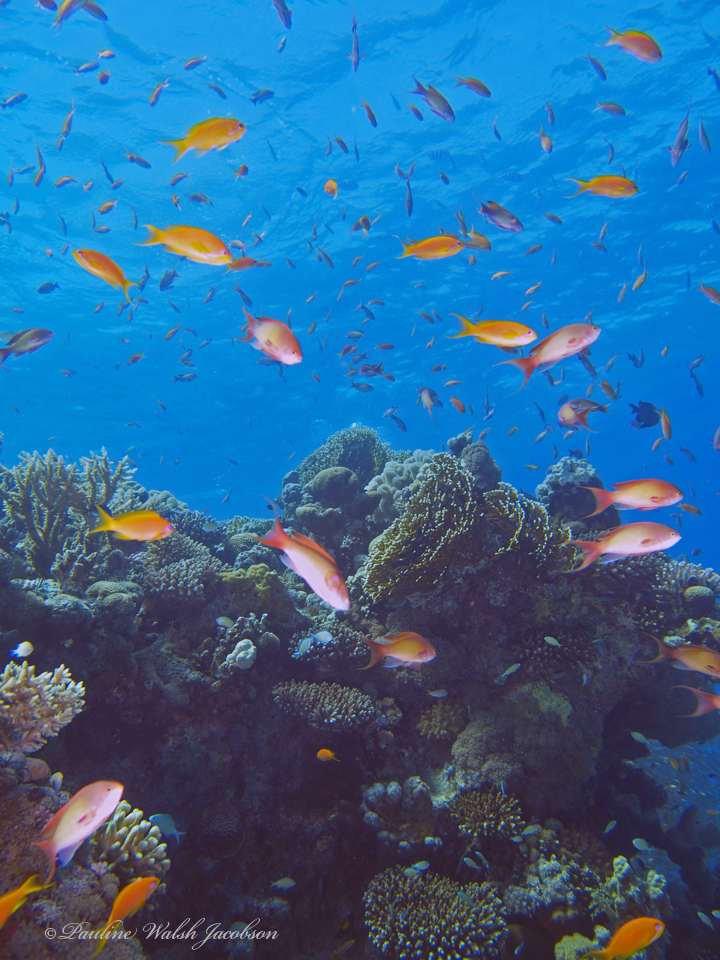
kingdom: Animalia
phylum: Chordata
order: Perciformes
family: Serranidae
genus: Pseudanthias
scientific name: Pseudanthias squamipinnis
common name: Scalefin anthias
